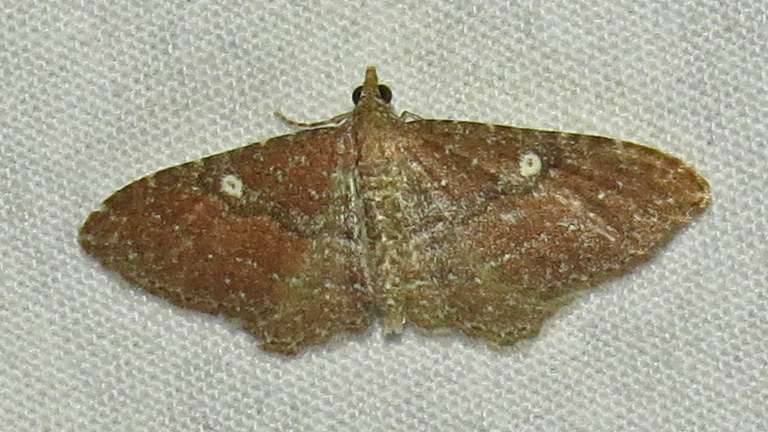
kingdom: Animalia
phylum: Arthropoda
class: Insecta
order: Lepidoptera
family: Geometridae
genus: Orthonama
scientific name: Orthonama obstipata
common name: The gem
